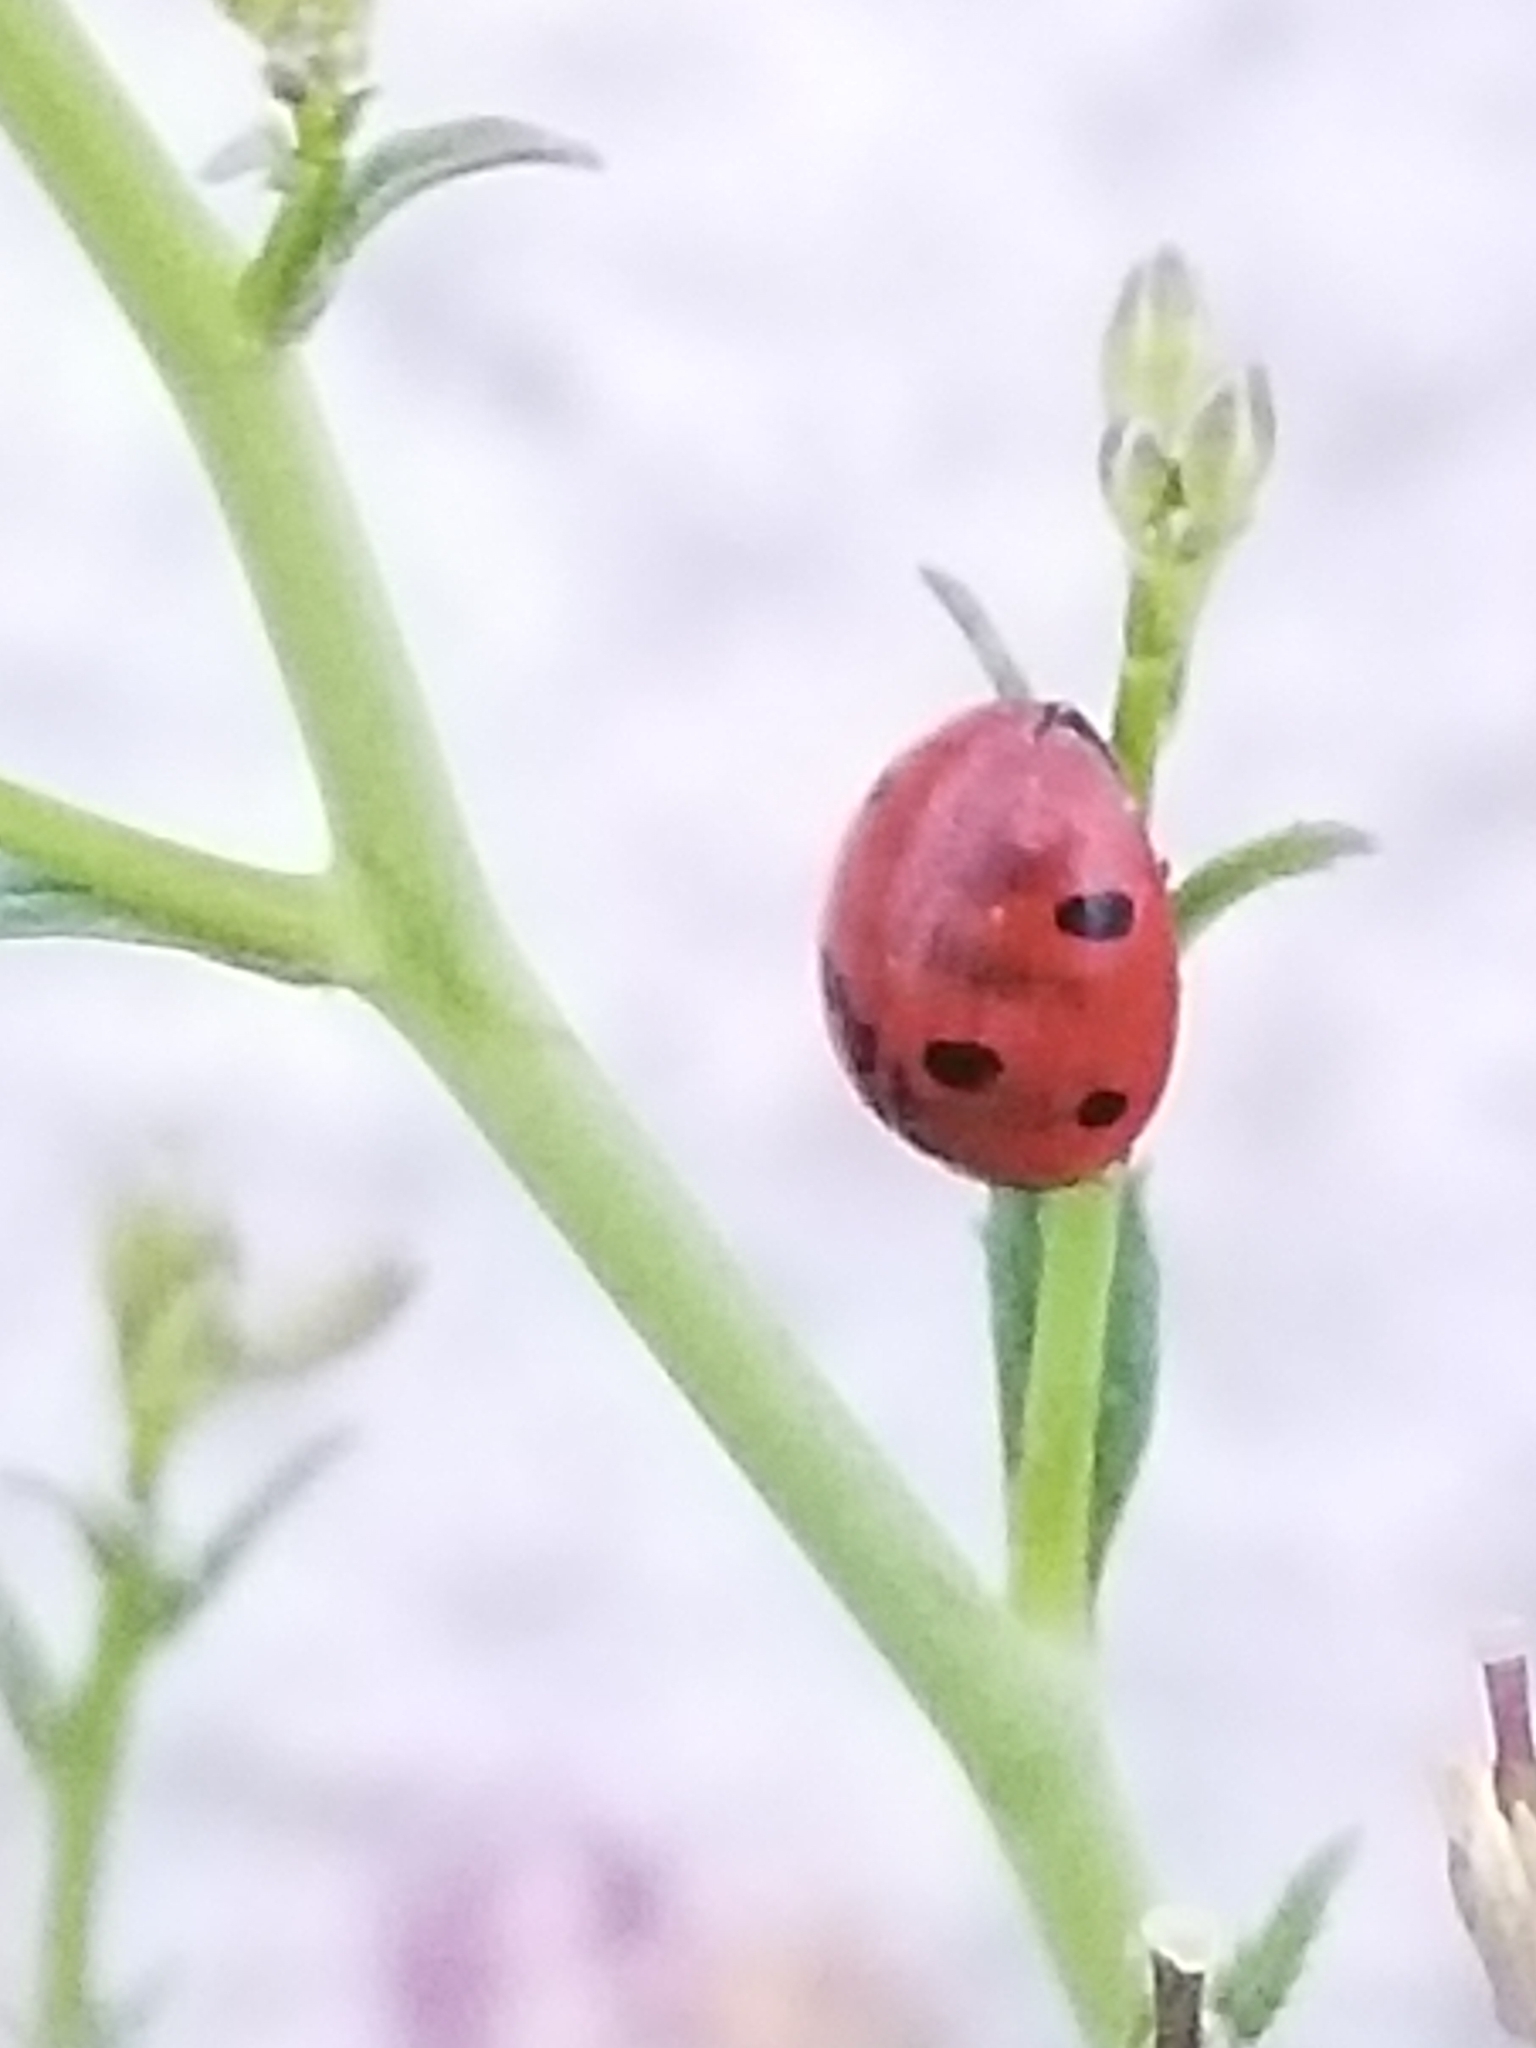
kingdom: Animalia
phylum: Arthropoda
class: Insecta
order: Coleoptera
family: Coccinellidae
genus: Coccinella
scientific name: Coccinella septempunctata
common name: Sevenspotted lady beetle
